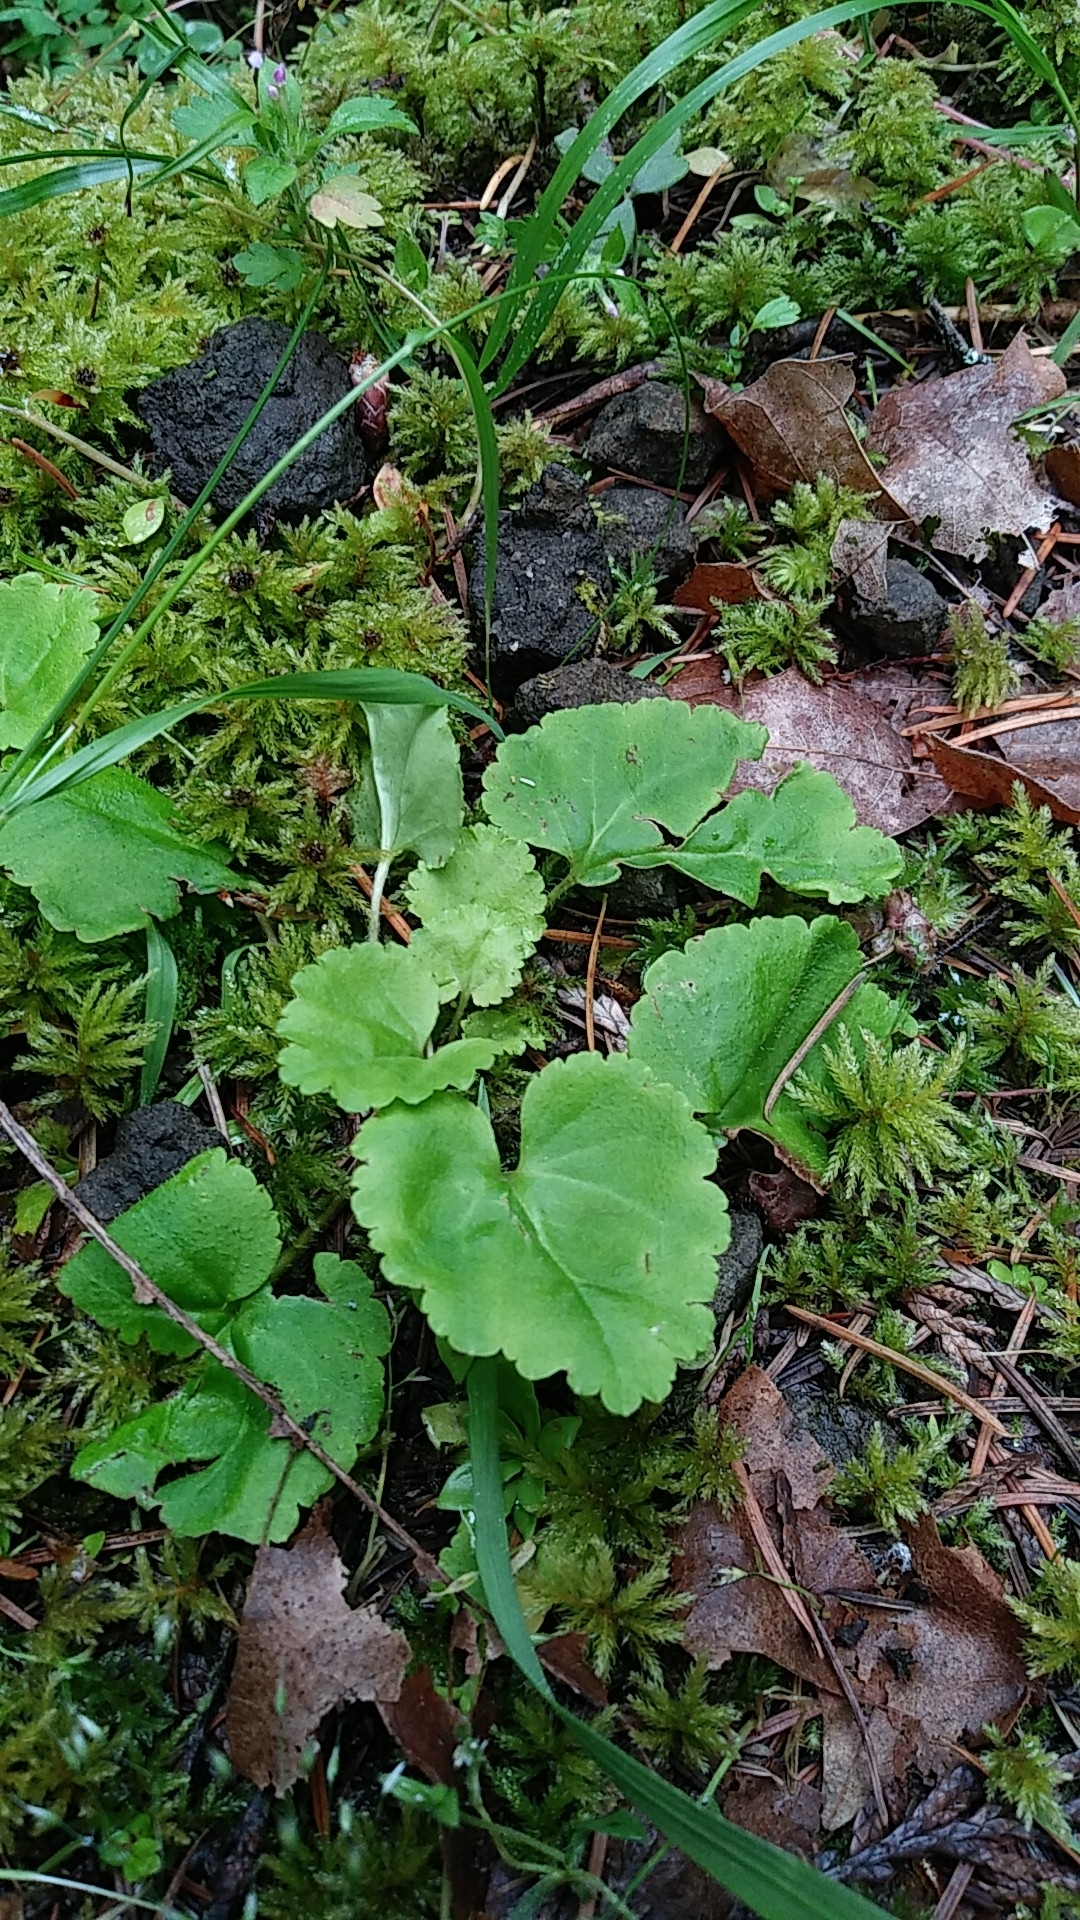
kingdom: Plantae
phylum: Tracheophyta
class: Magnoliopsida
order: Lamiales
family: Plantaginaceae
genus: Synthyris
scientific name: Synthyris reniformis
